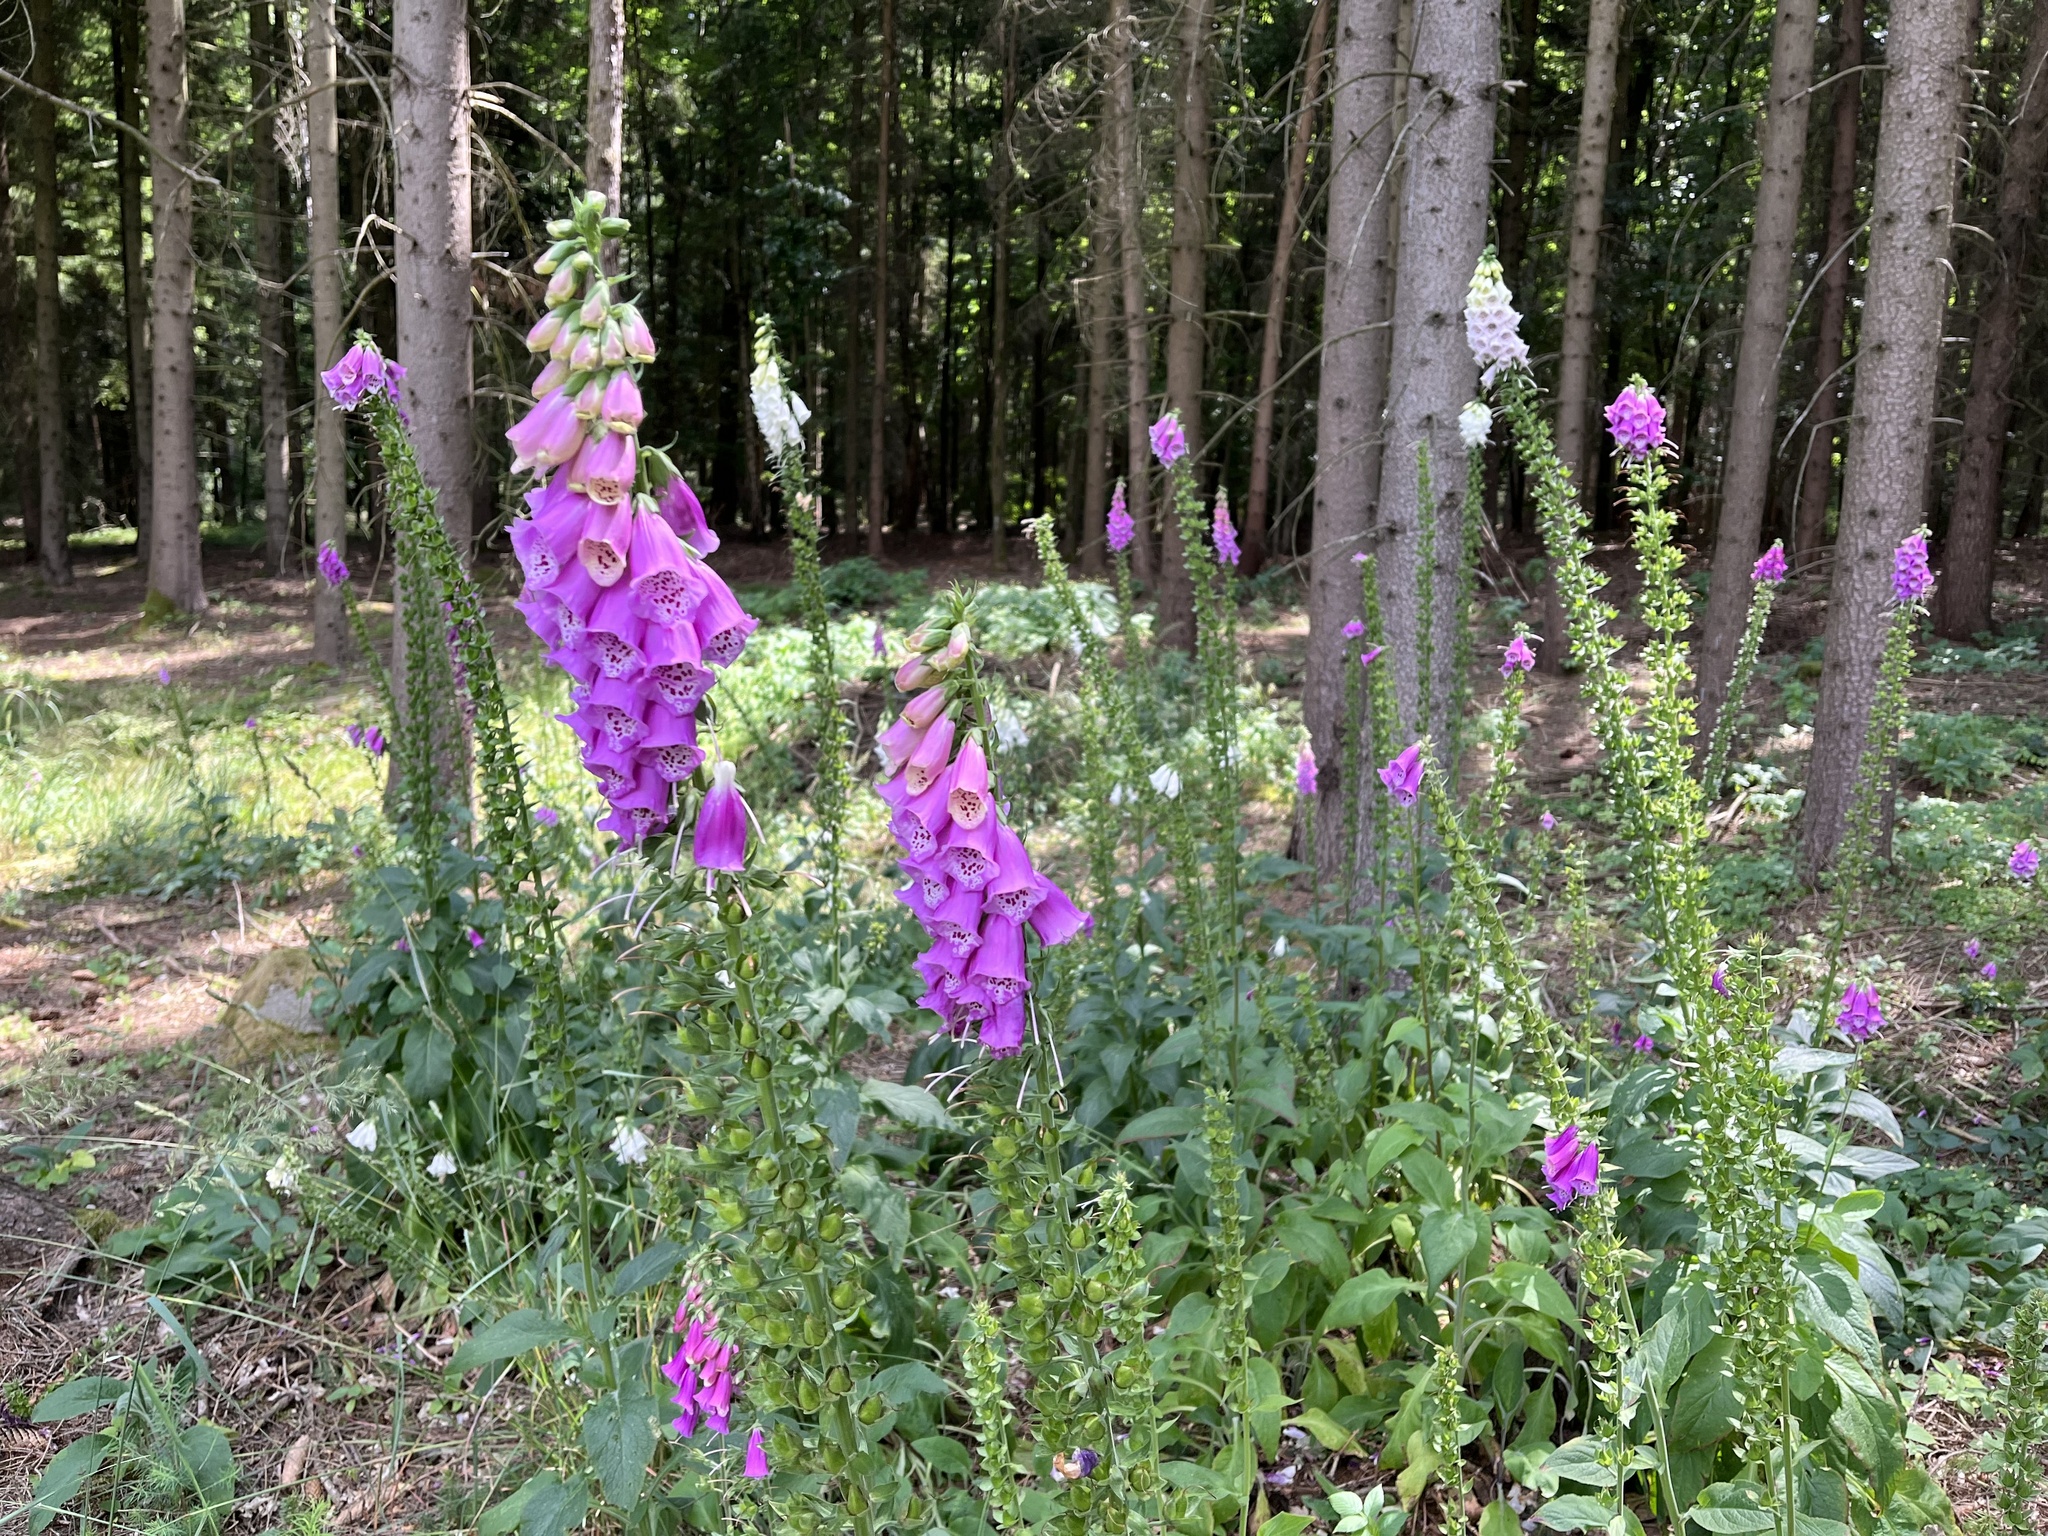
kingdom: Plantae
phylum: Tracheophyta
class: Magnoliopsida
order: Lamiales
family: Plantaginaceae
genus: Digitalis
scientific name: Digitalis purpurea
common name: Foxglove
